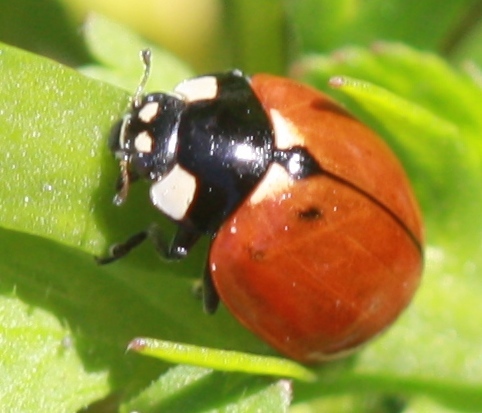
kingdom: Animalia
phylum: Arthropoda
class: Insecta
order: Coleoptera
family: Coccinellidae
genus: Coccinella
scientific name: Coccinella californica
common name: Lady beetle
